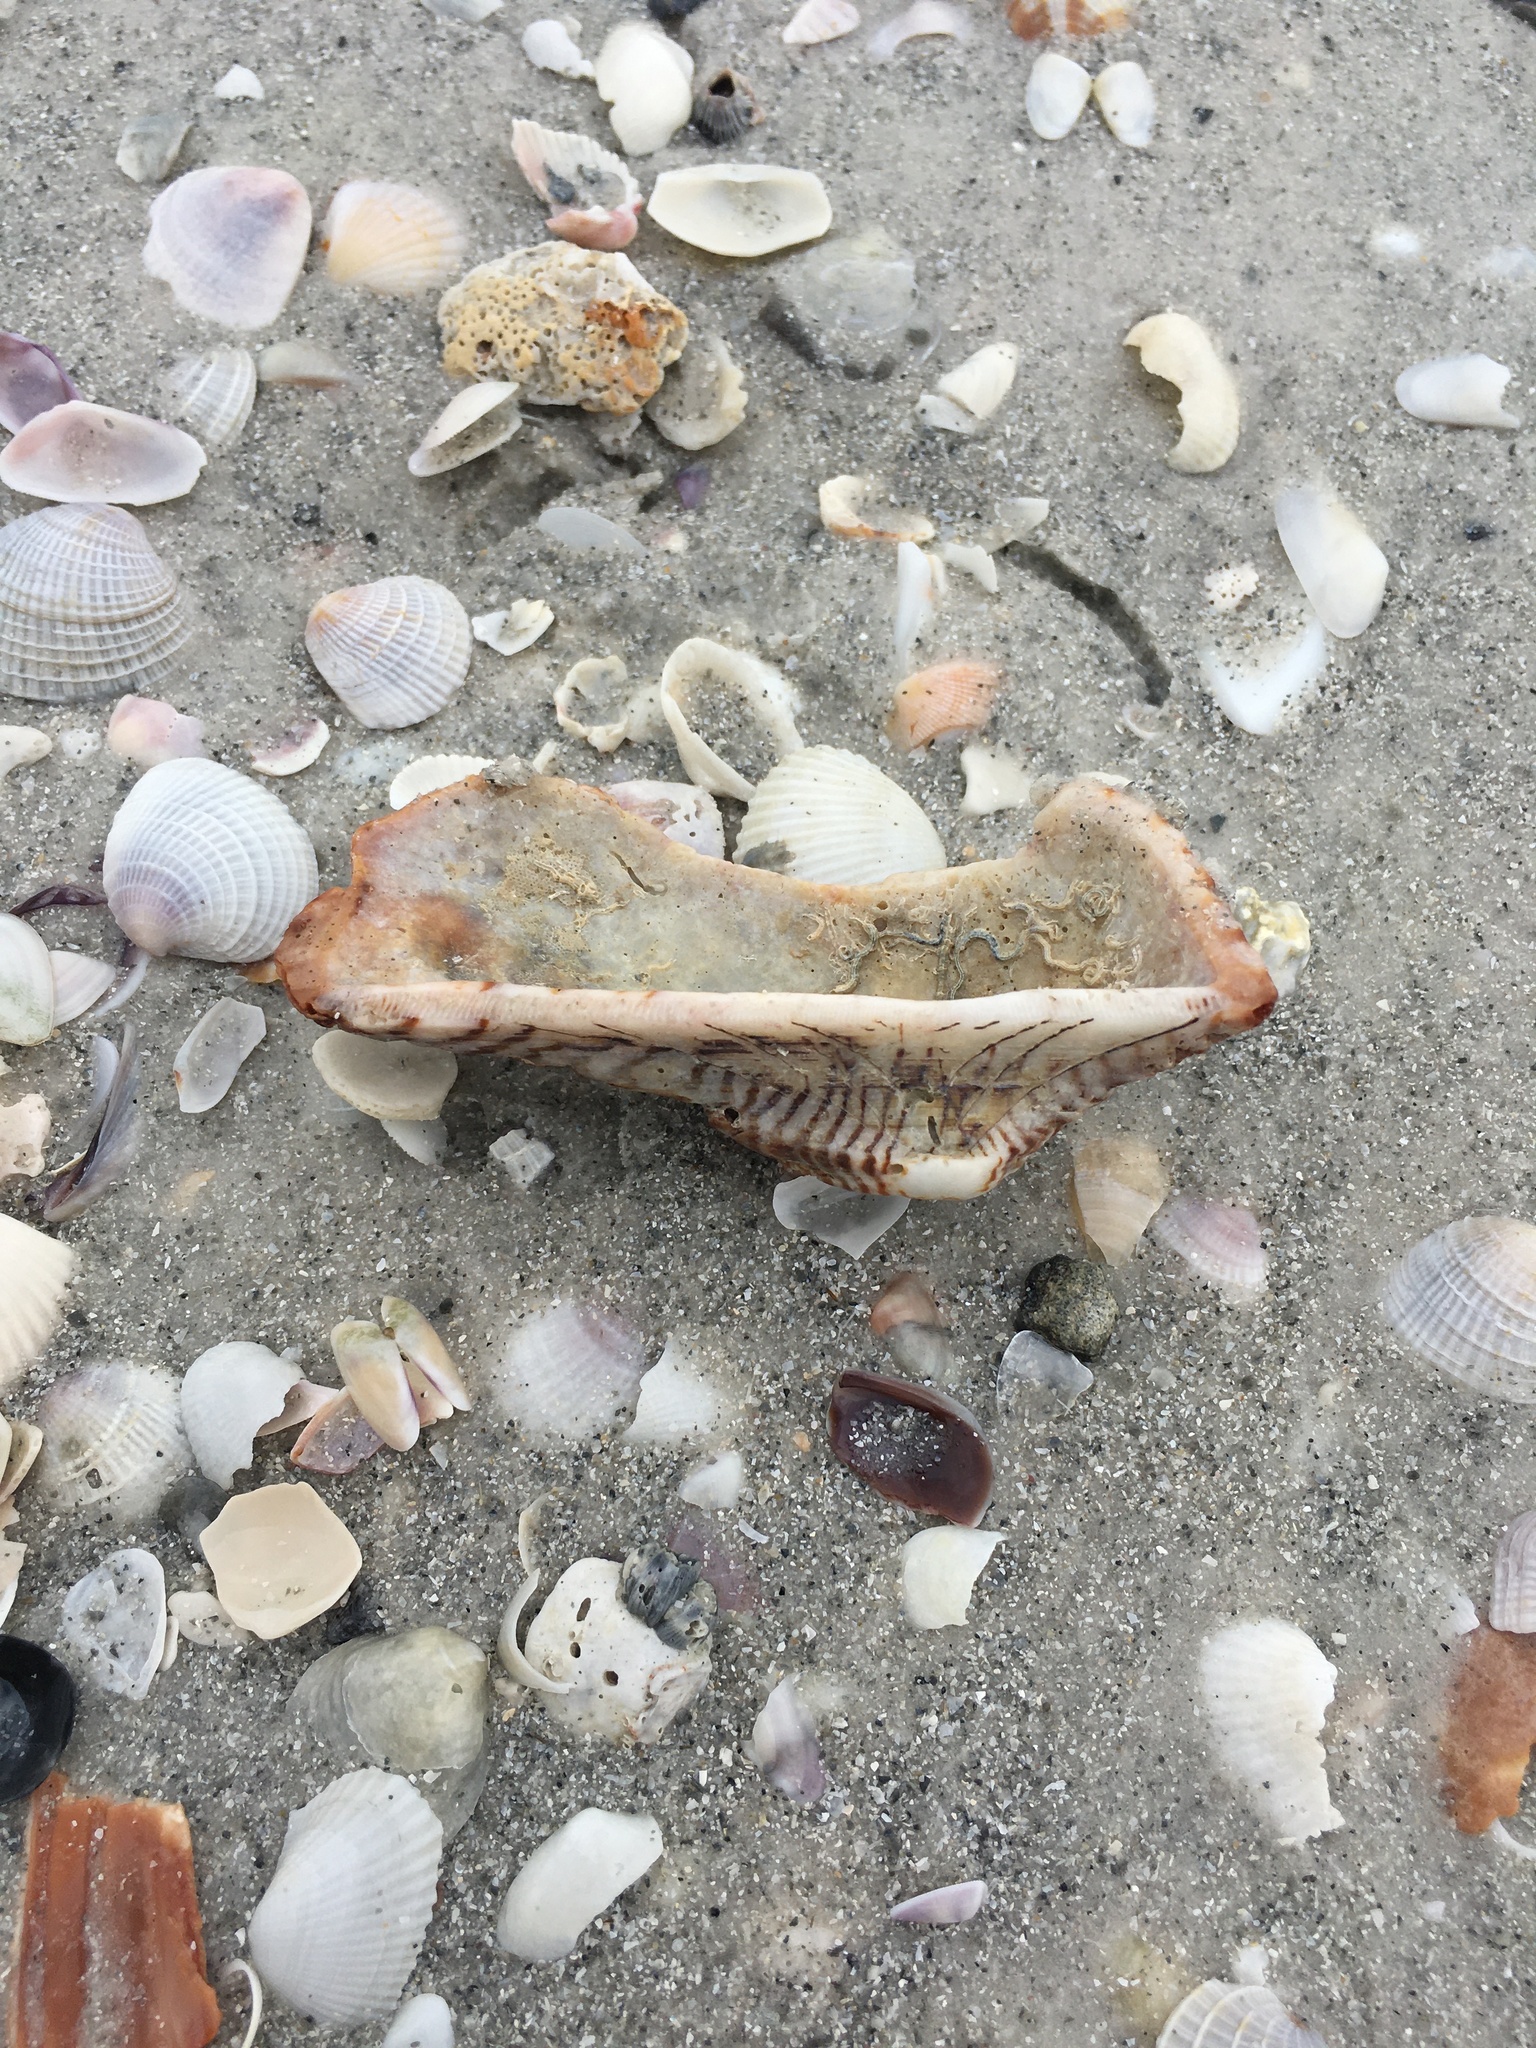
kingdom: Animalia
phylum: Mollusca
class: Bivalvia
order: Arcida
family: Arcidae
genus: Arca
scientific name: Arca zebra
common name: Atlantic turkey wing
